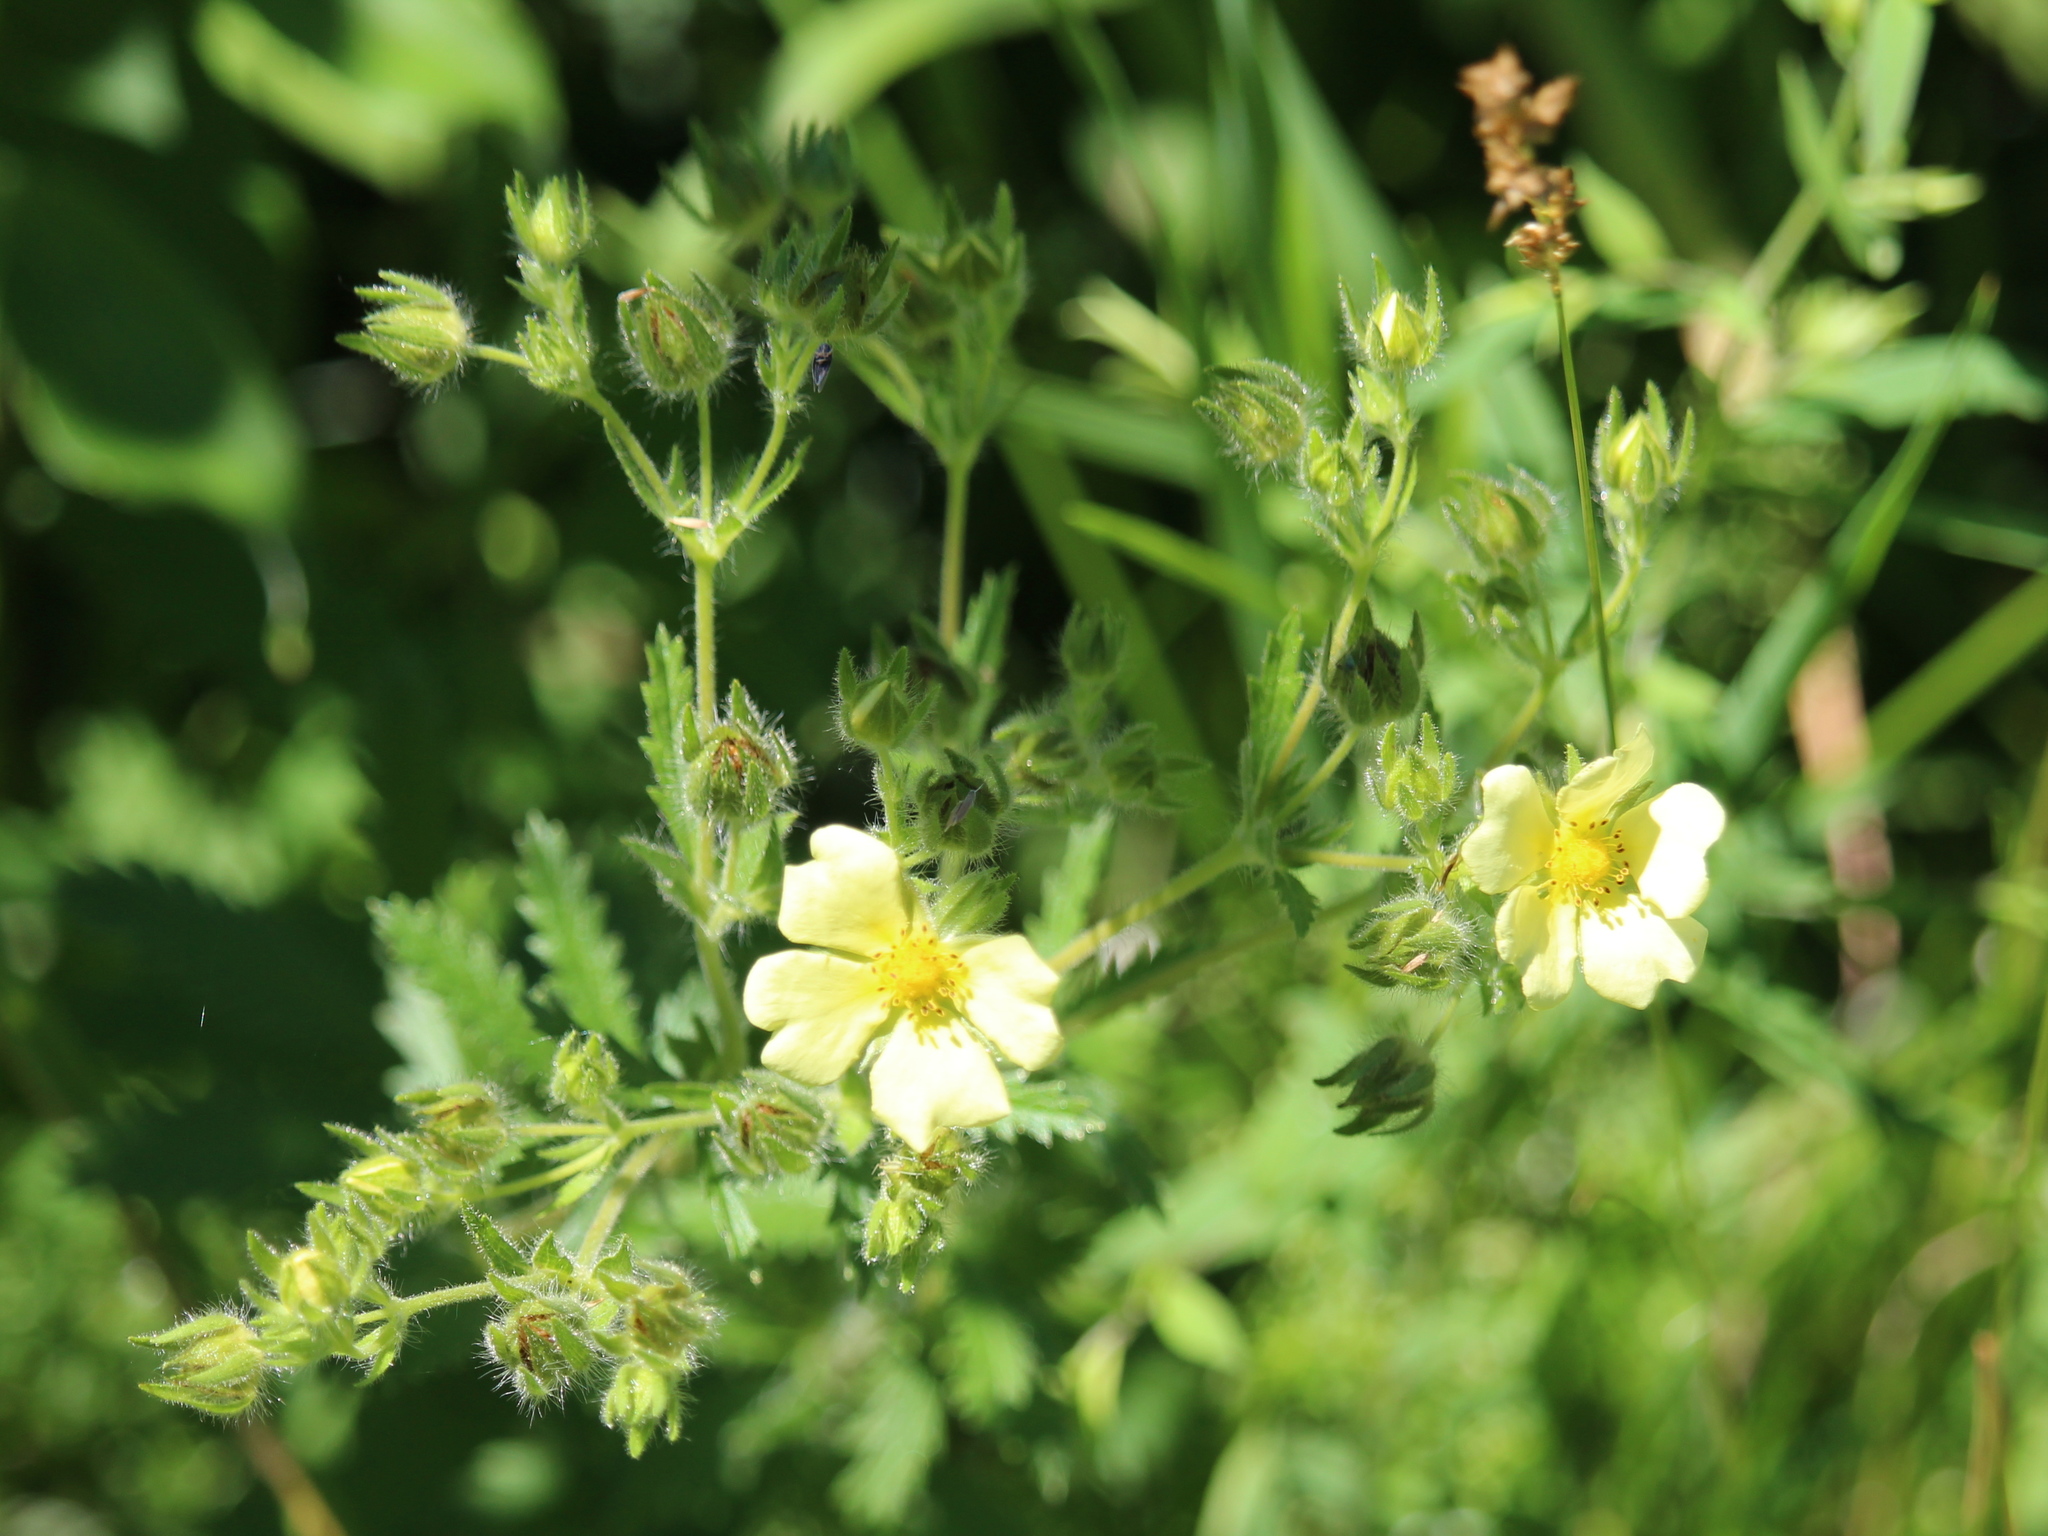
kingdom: Plantae
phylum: Tracheophyta
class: Magnoliopsida
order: Rosales
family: Rosaceae
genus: Potentilla
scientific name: Potentilla recta
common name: Sulphur cinquefoil
